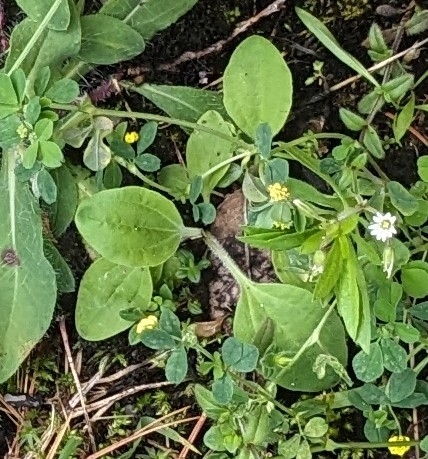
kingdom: Plantae
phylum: Tracheophyta
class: Magnoliopsida
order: Lamiales
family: Plantaginaceae
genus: Plantago
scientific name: Plantago major
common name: Common plantain
